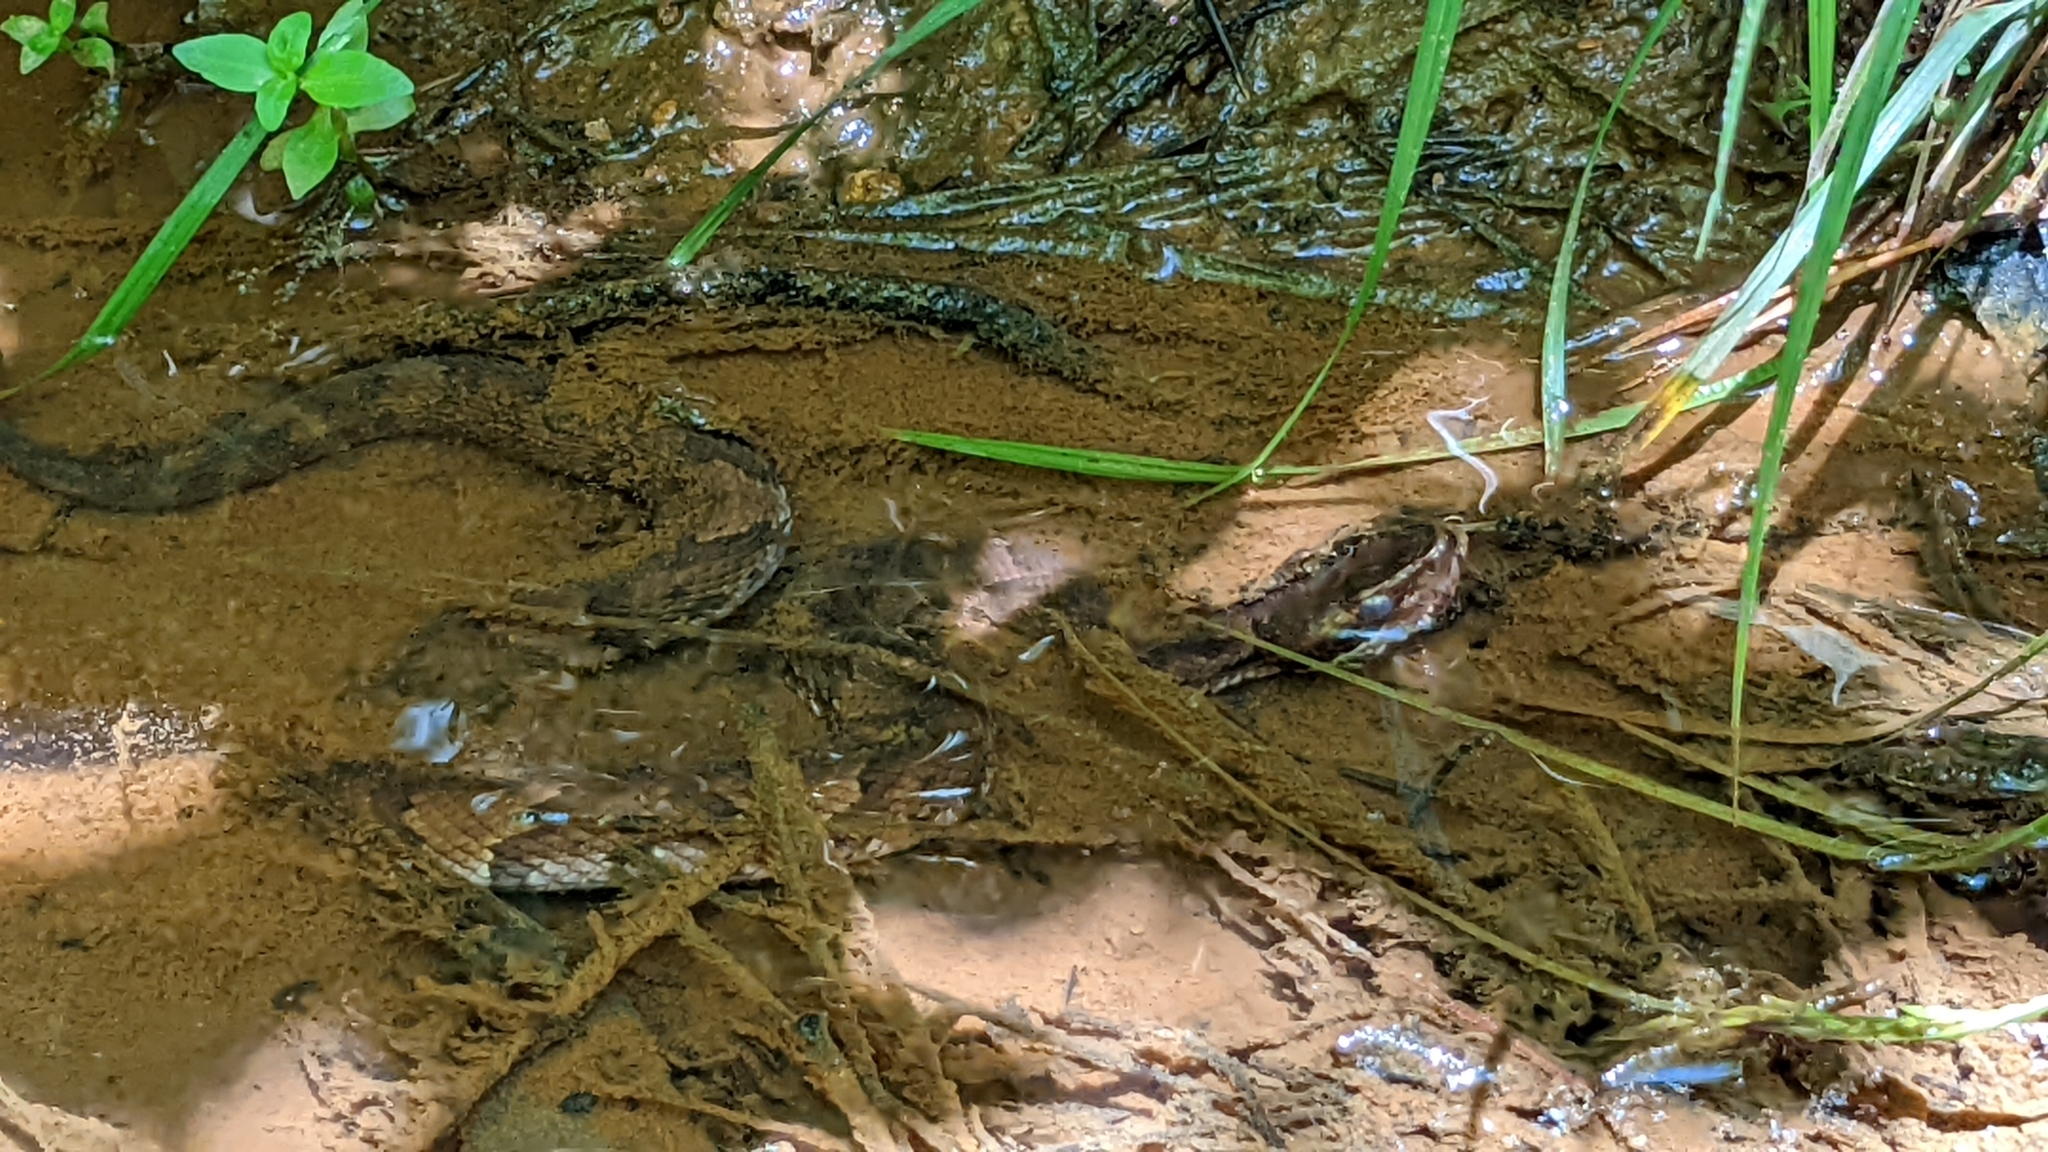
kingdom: Animalia
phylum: Chordata
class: Squamata
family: Viperidae
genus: Agkistrodon
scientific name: Agkistrodon piscivorus
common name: Cottonmouth
